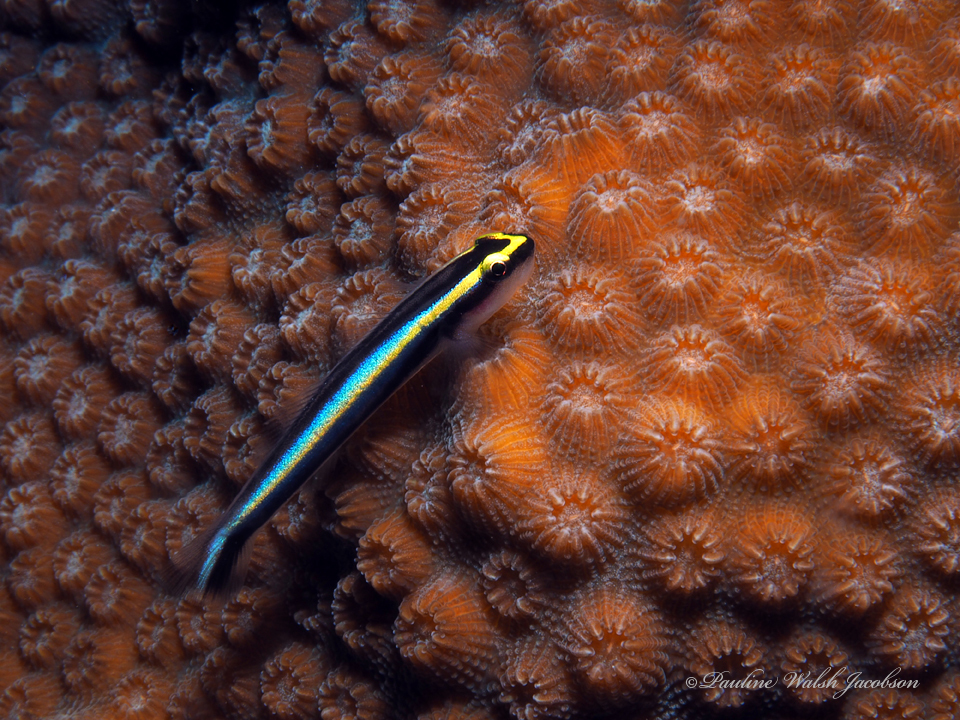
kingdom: Animalia
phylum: Chordata
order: Perciformes
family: Gobiidae
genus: Elacatinus
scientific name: Elacatinus evelynae
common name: Sharknose goby
